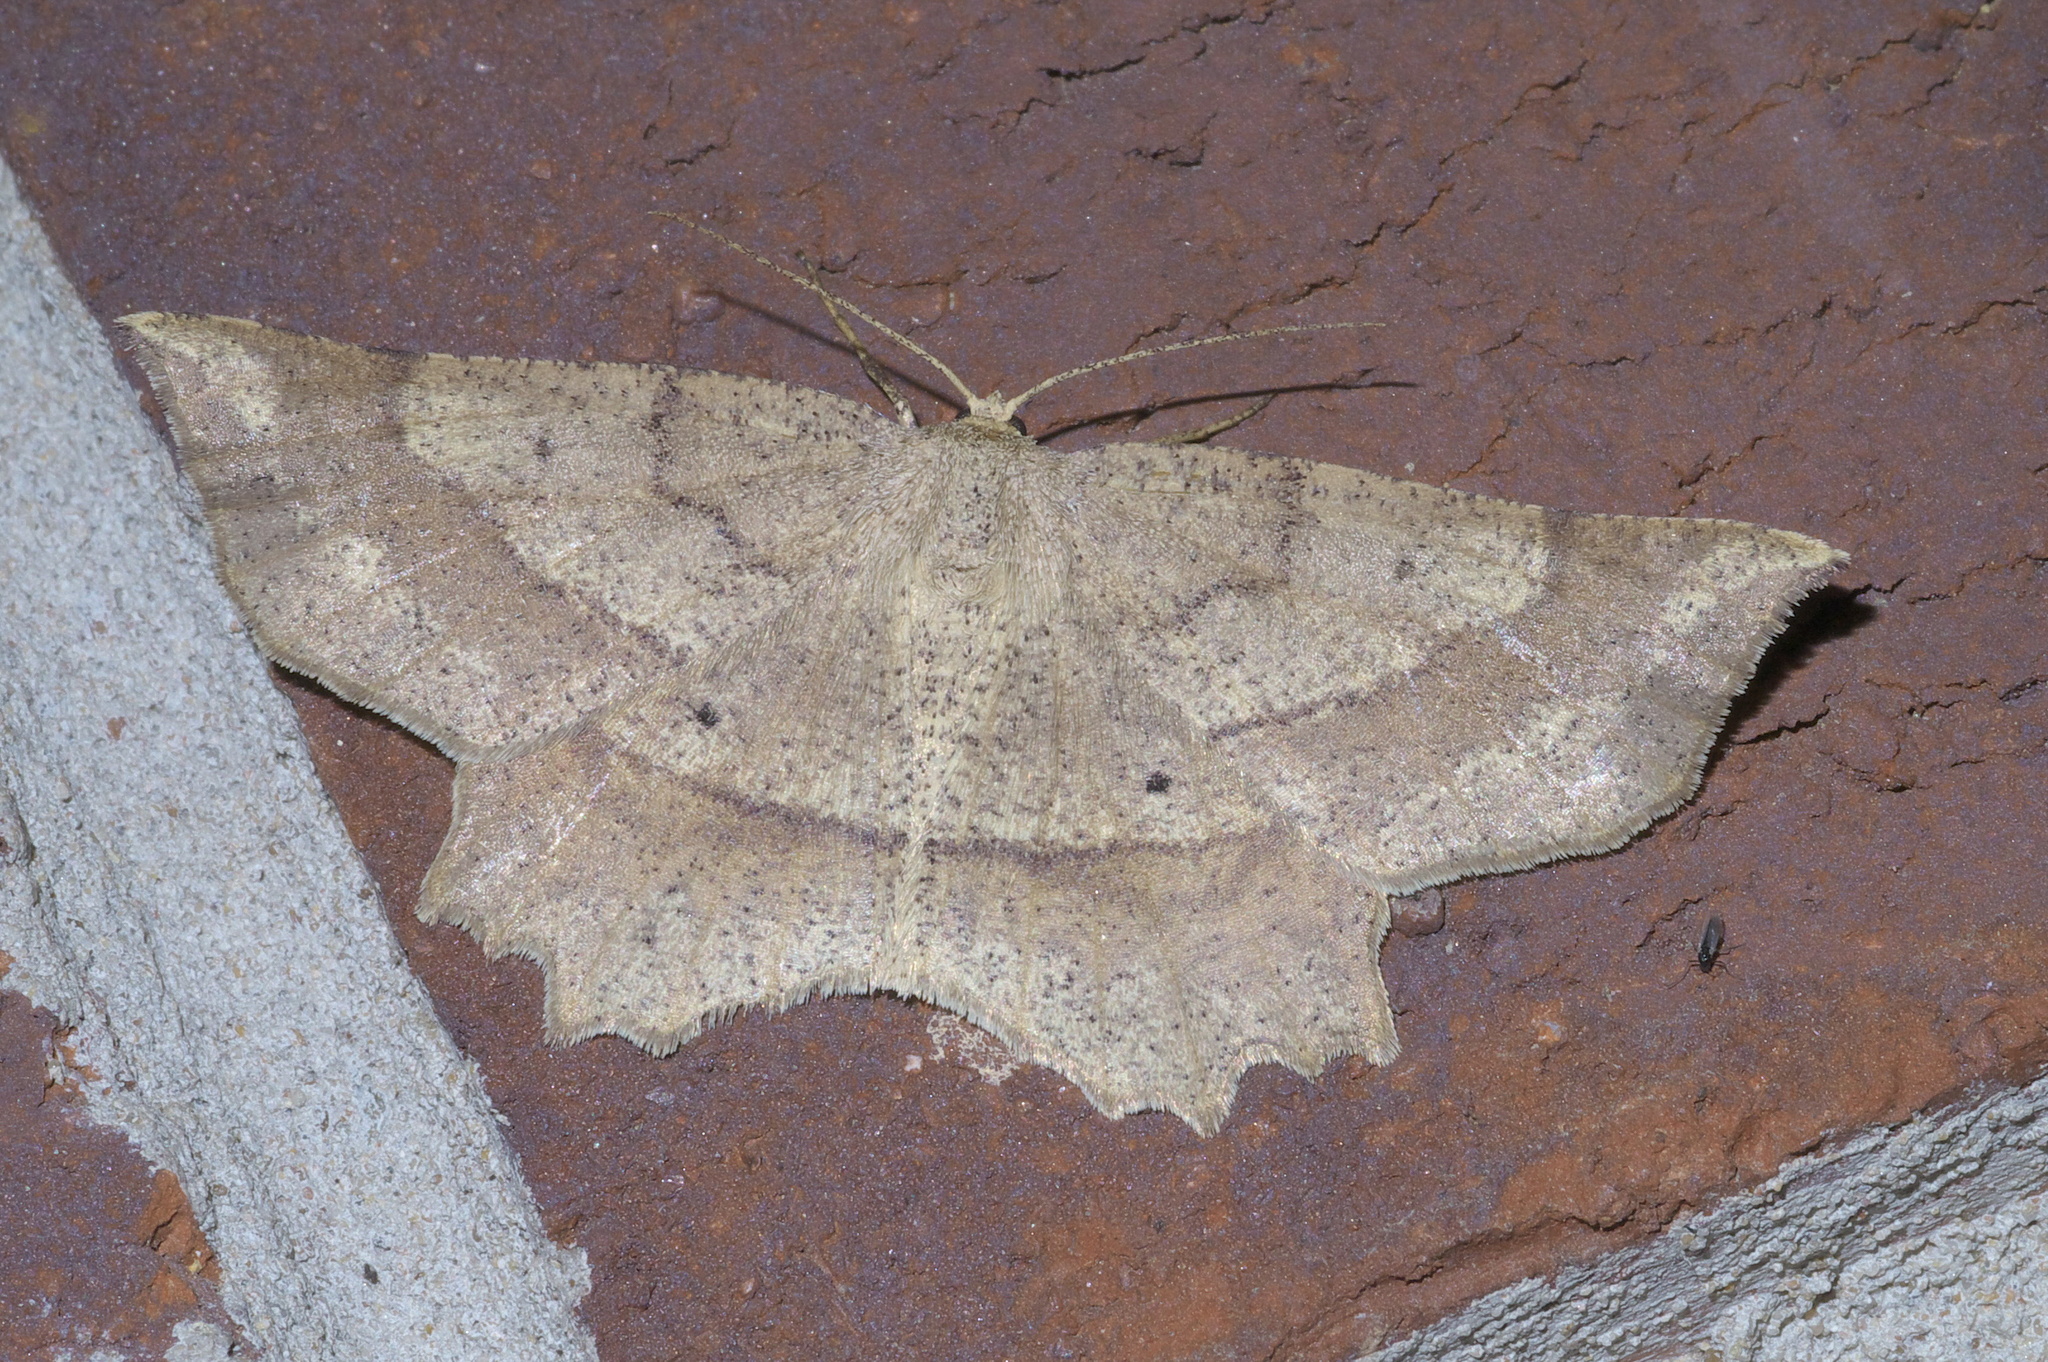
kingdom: Animalia
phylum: Arthropoda
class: Insecta
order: Lepidoptera
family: Geometridae
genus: Euchlaena
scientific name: Euchlaena
